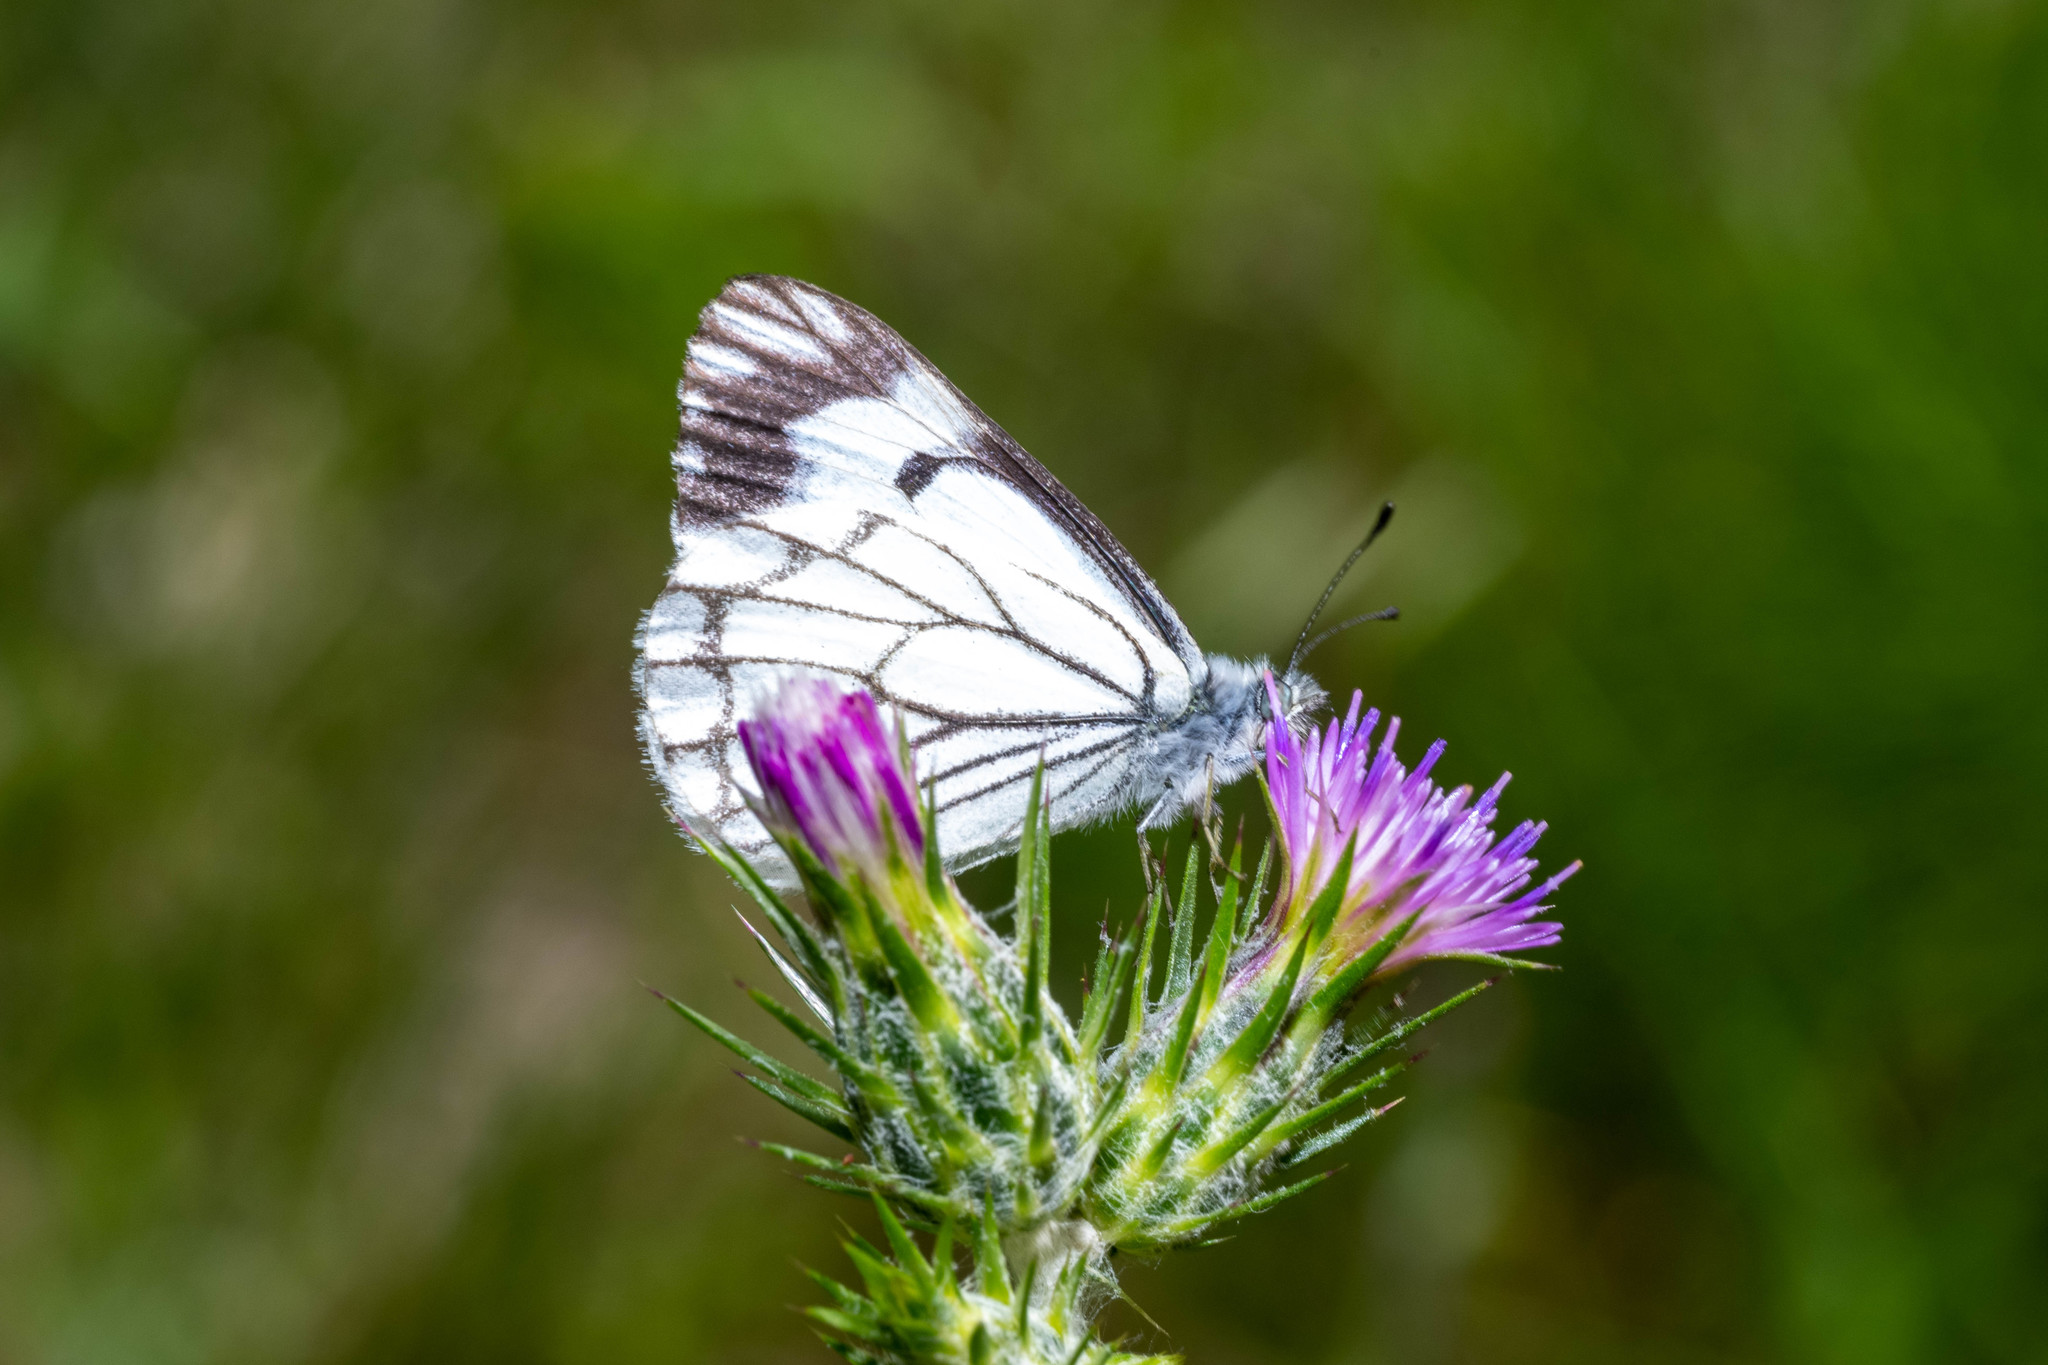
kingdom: Animalia
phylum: Arthropoda
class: Insecta
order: Lepidoptera
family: Pieridae
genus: Neophasia
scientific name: Neophasia menapia
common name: Pine white
